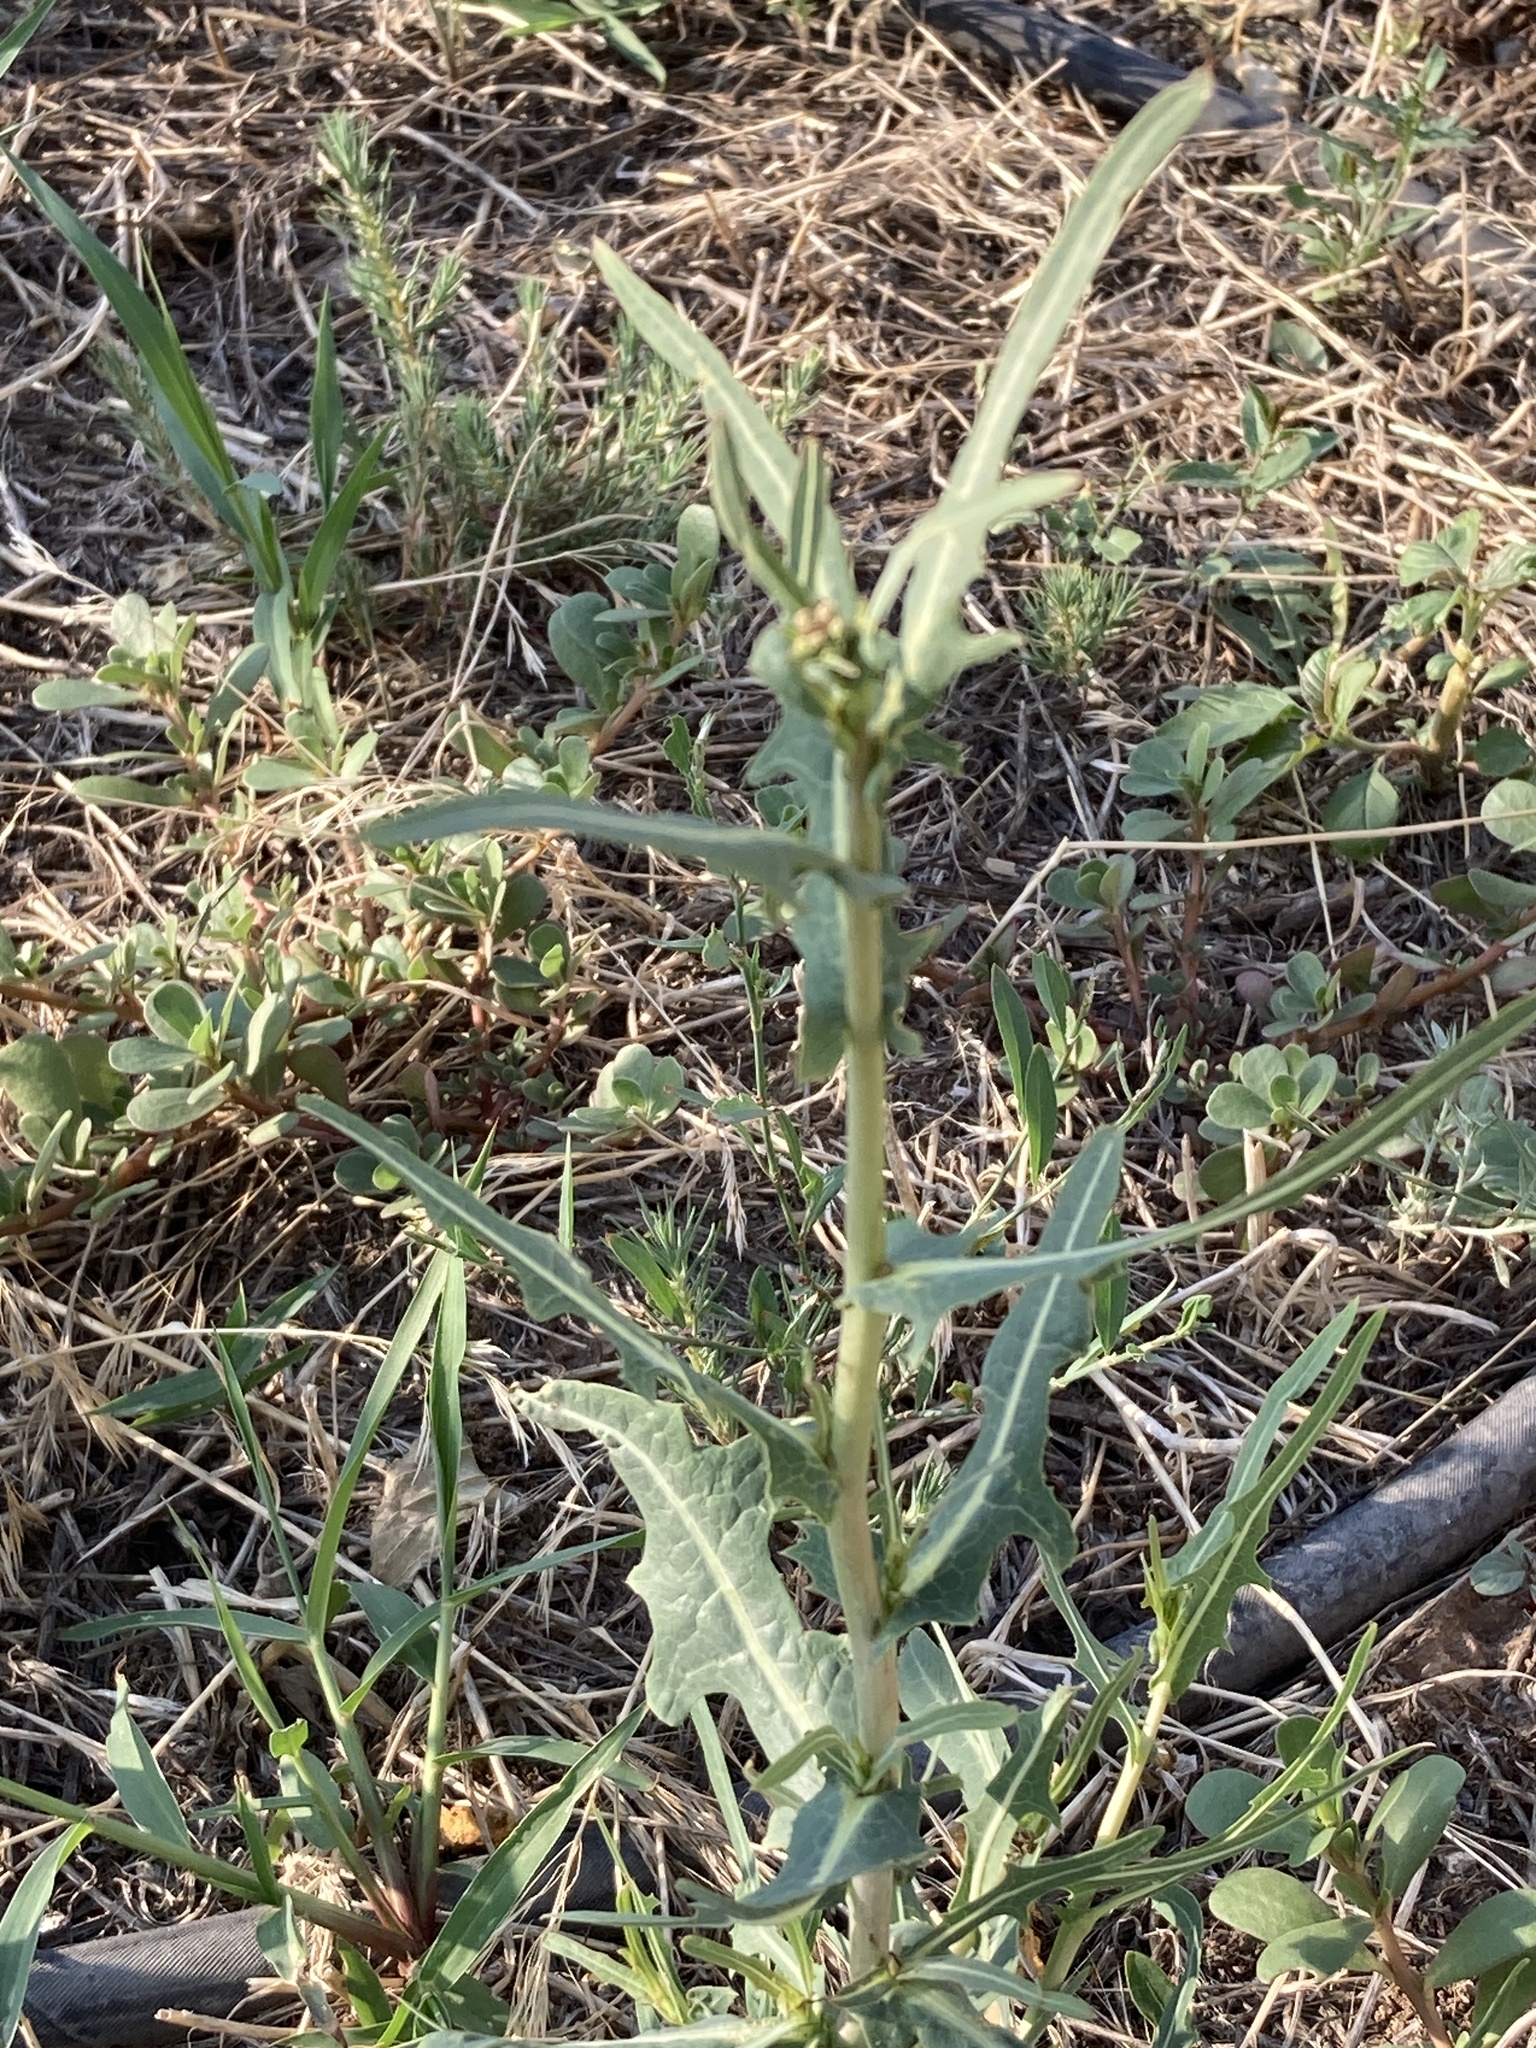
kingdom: Plantae
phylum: Tracheophyta
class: Magnoliopsida
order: Asterales
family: Asteraceae
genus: Lactuca
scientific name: Lactuca serriola
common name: Prickly lettuce
